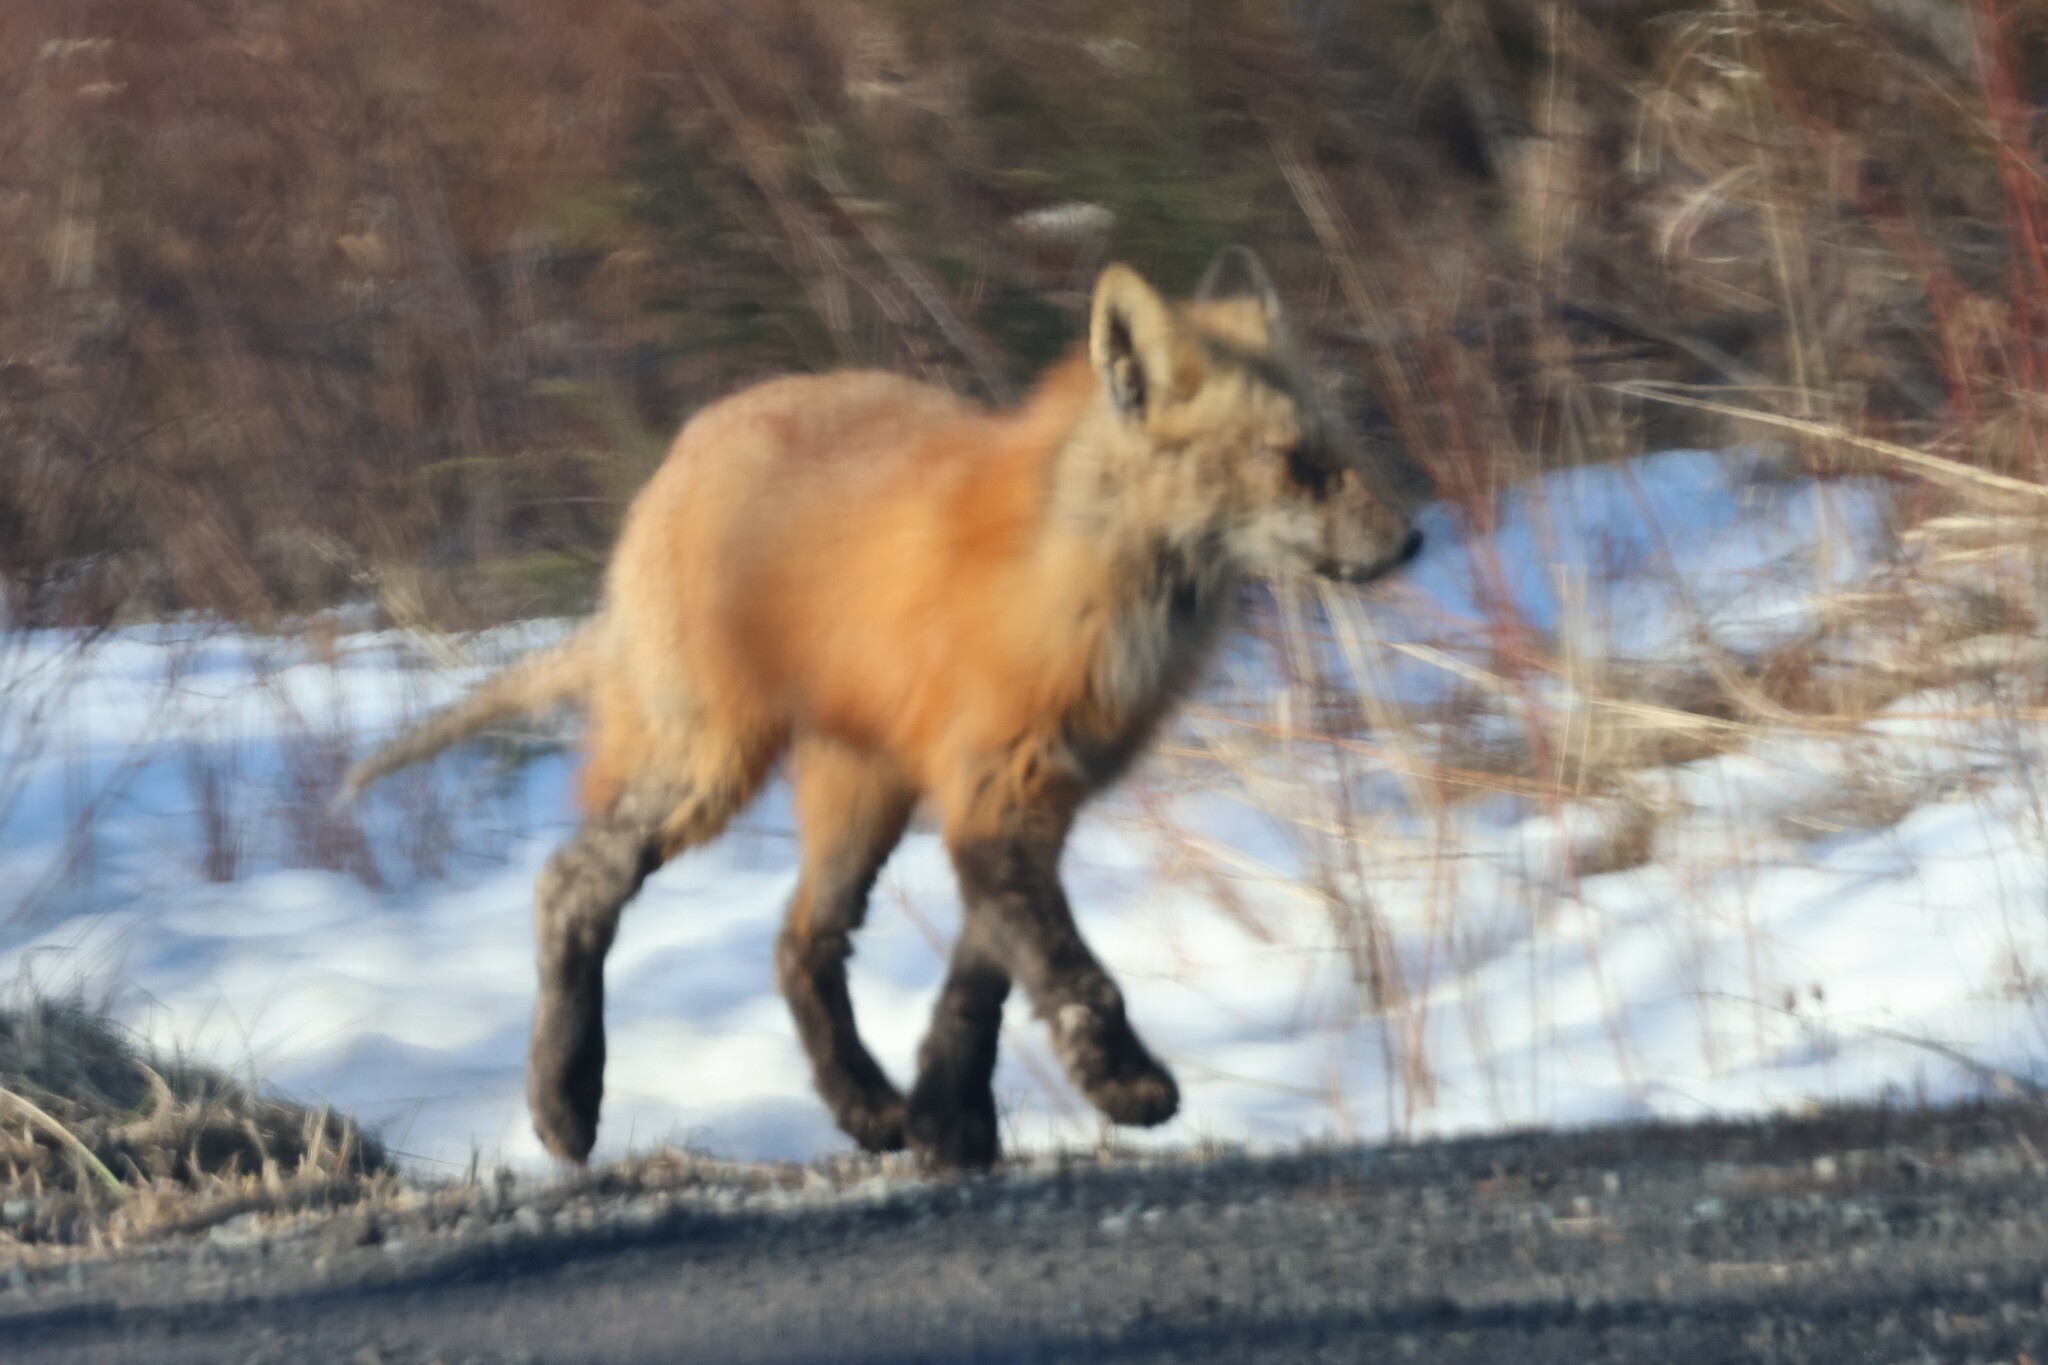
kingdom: Animalia
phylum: Chordata
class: Mammalia
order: Carnivora
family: Canidae
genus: Vulpes
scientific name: Vulpes vulpes
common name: Red fox
